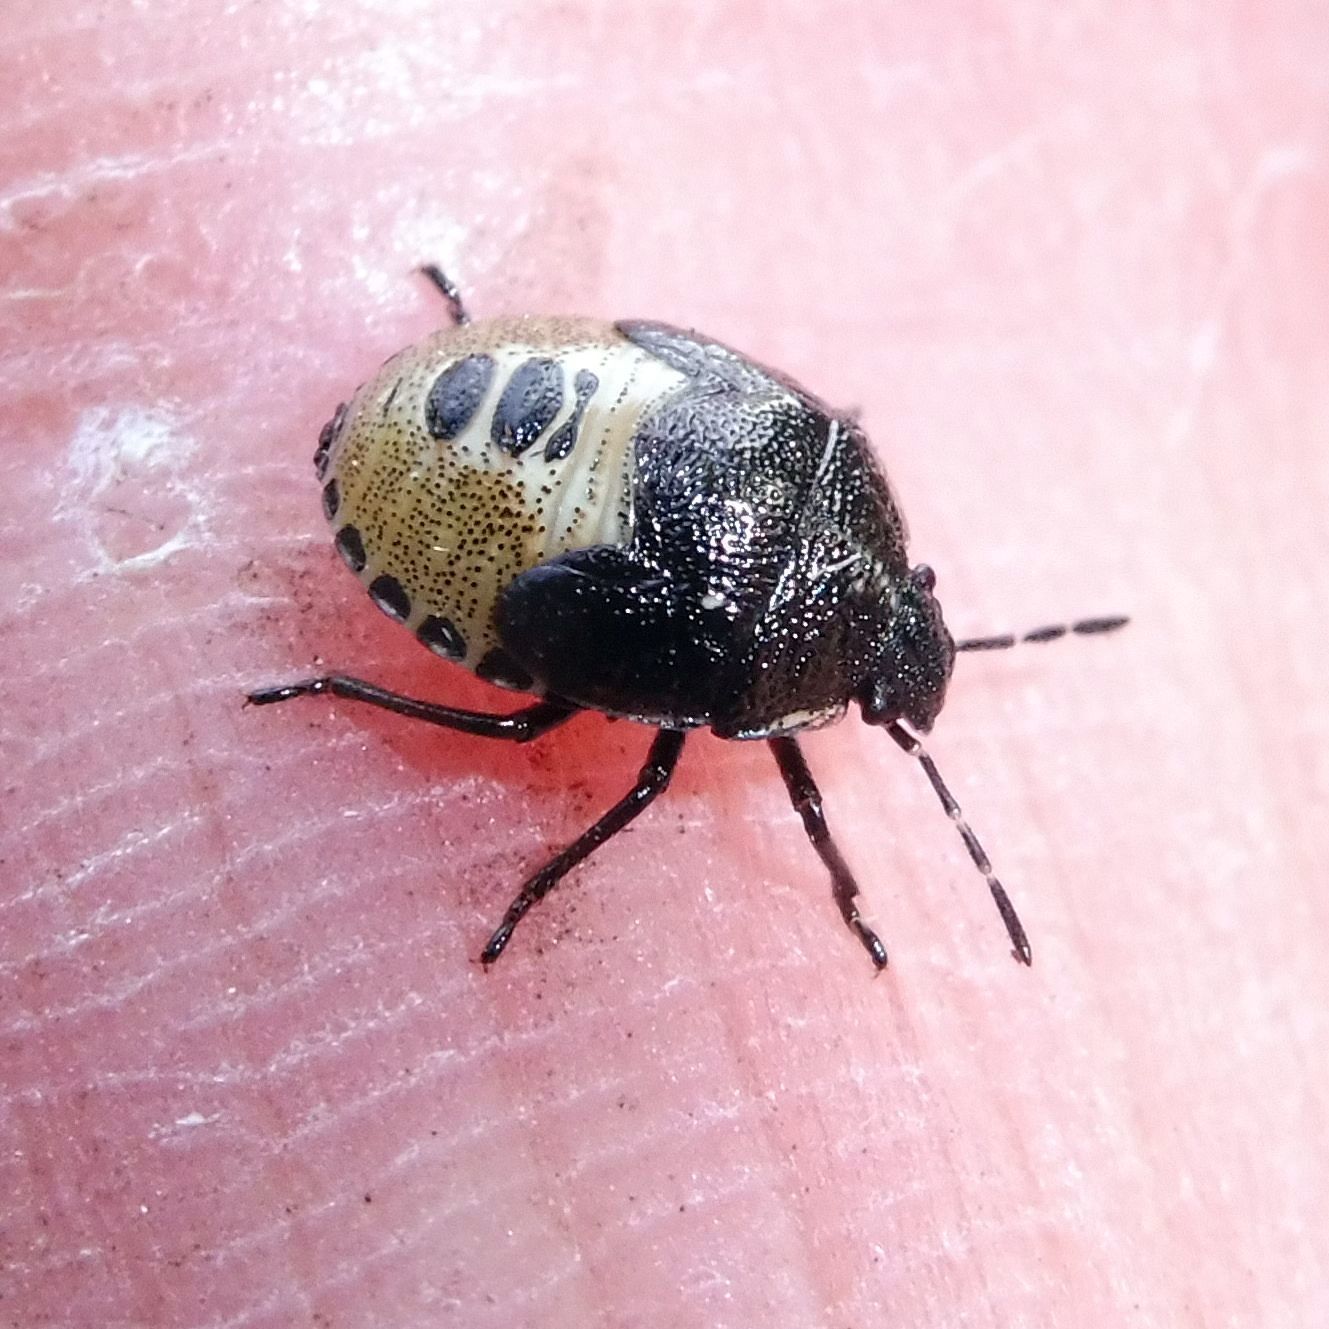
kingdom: Animalia
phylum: Arthropoda
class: Insecta
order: Hemiptera
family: Pentatomidae
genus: Eysarcoris
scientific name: Eysarcoris venustissimus
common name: Woundwort shieldbug
